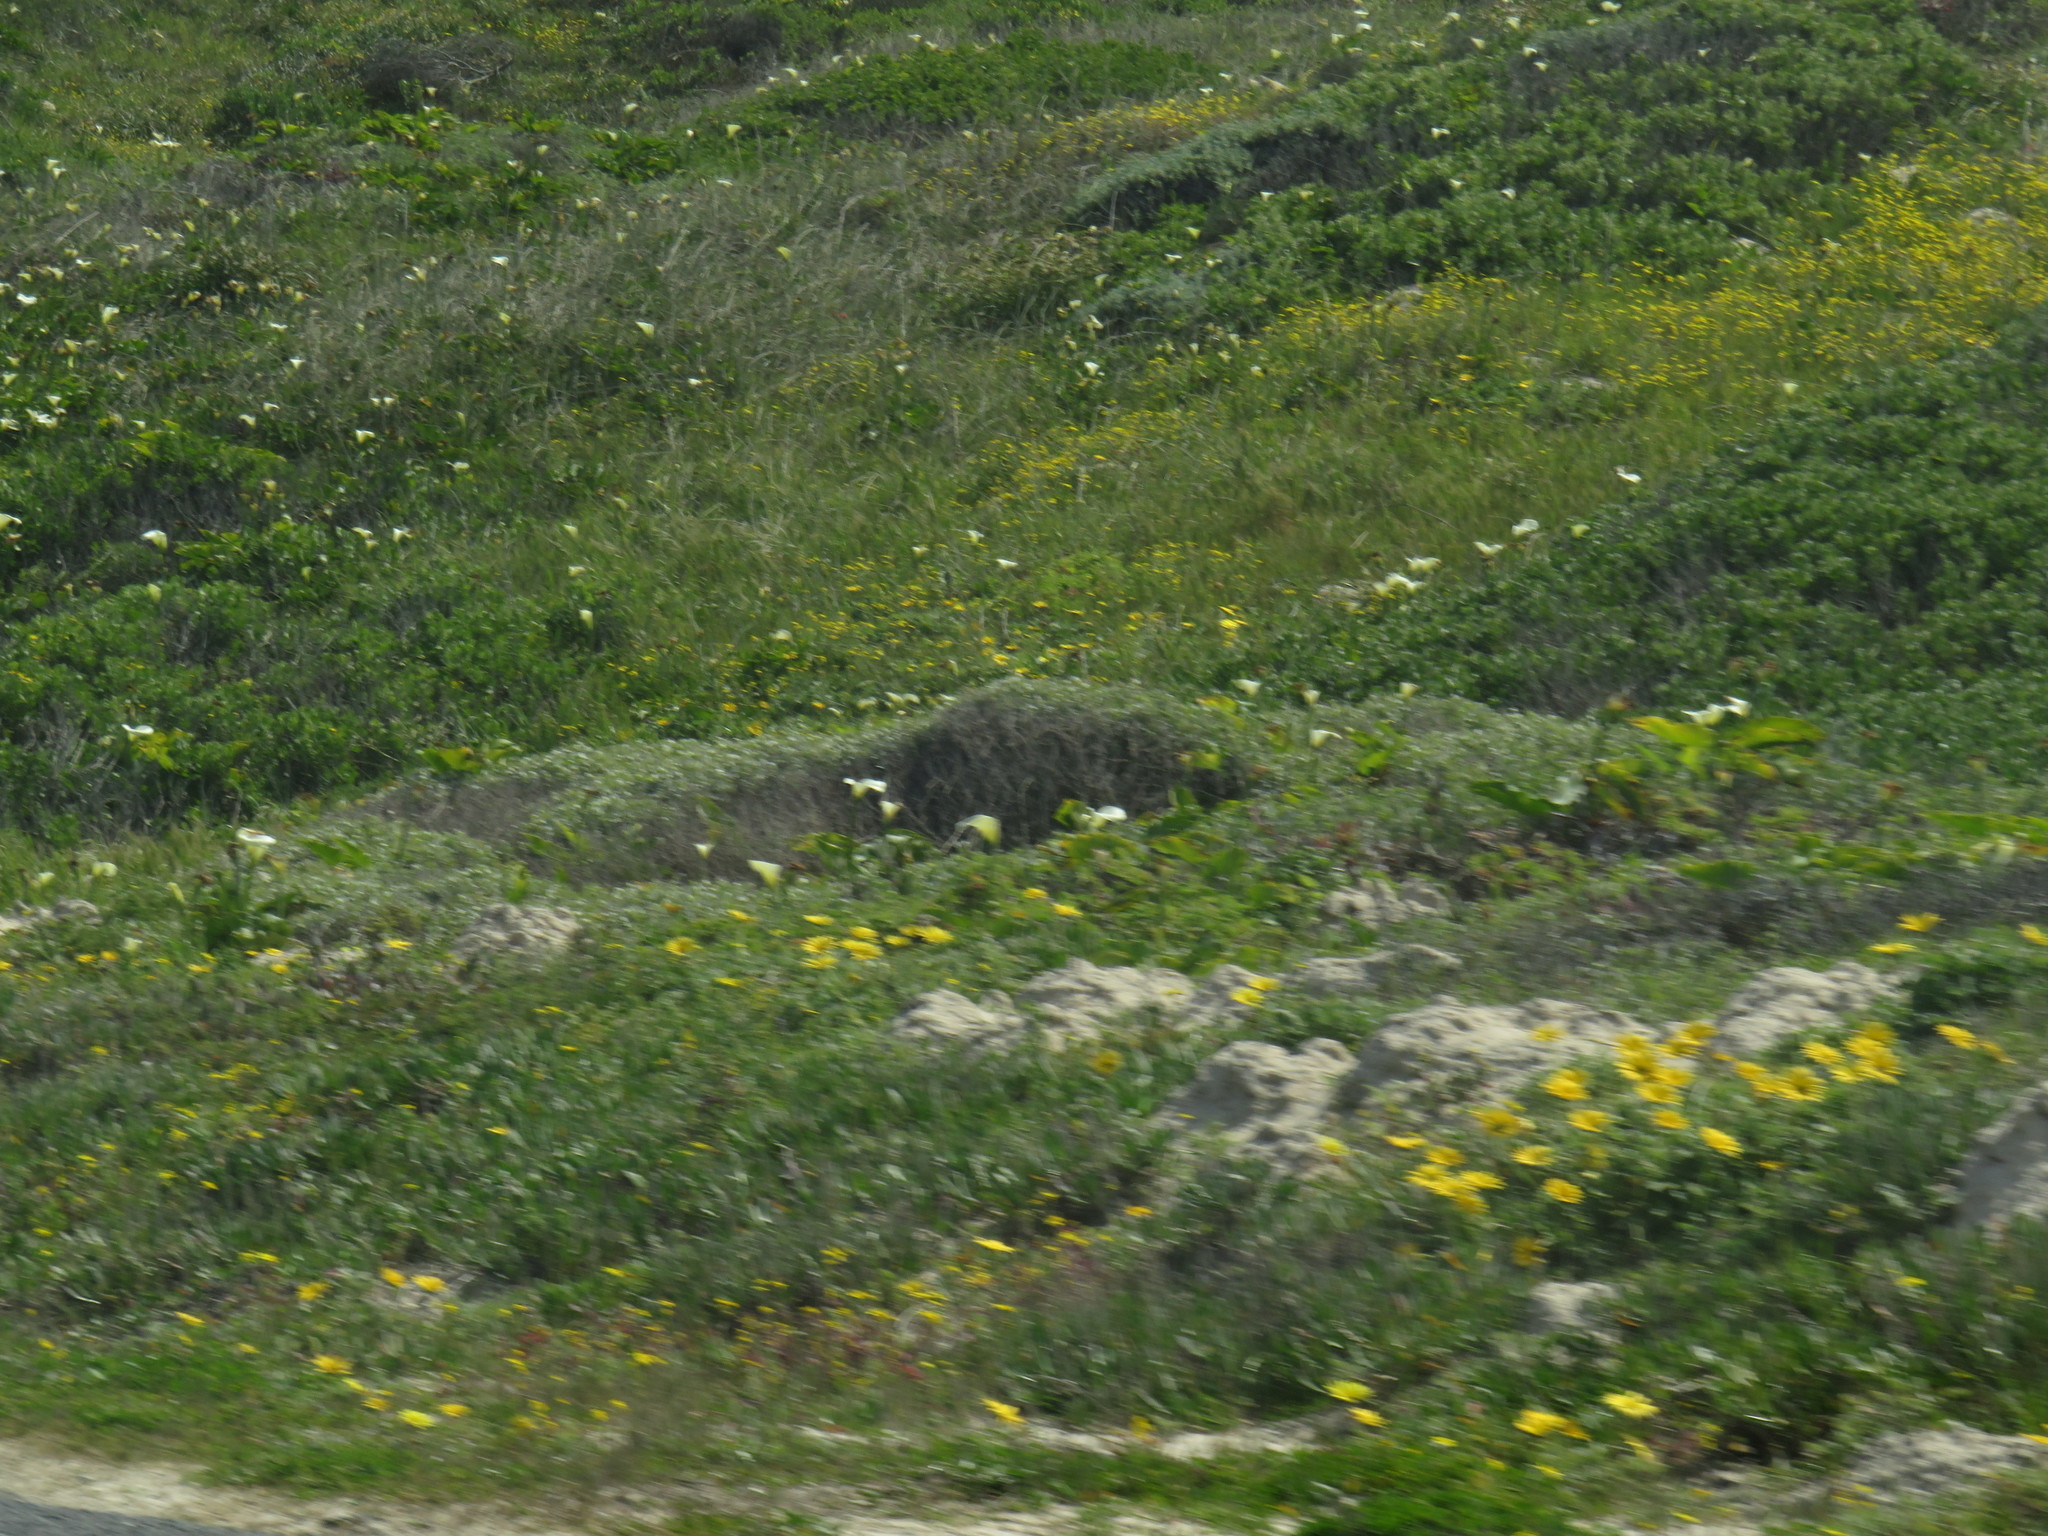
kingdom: Plantae
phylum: Tracheophyta
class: Liliopsida
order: Alismatales
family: Araceae
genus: Zantedeschia
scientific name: Zantedeschia aethiopica
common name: Altar-lily
